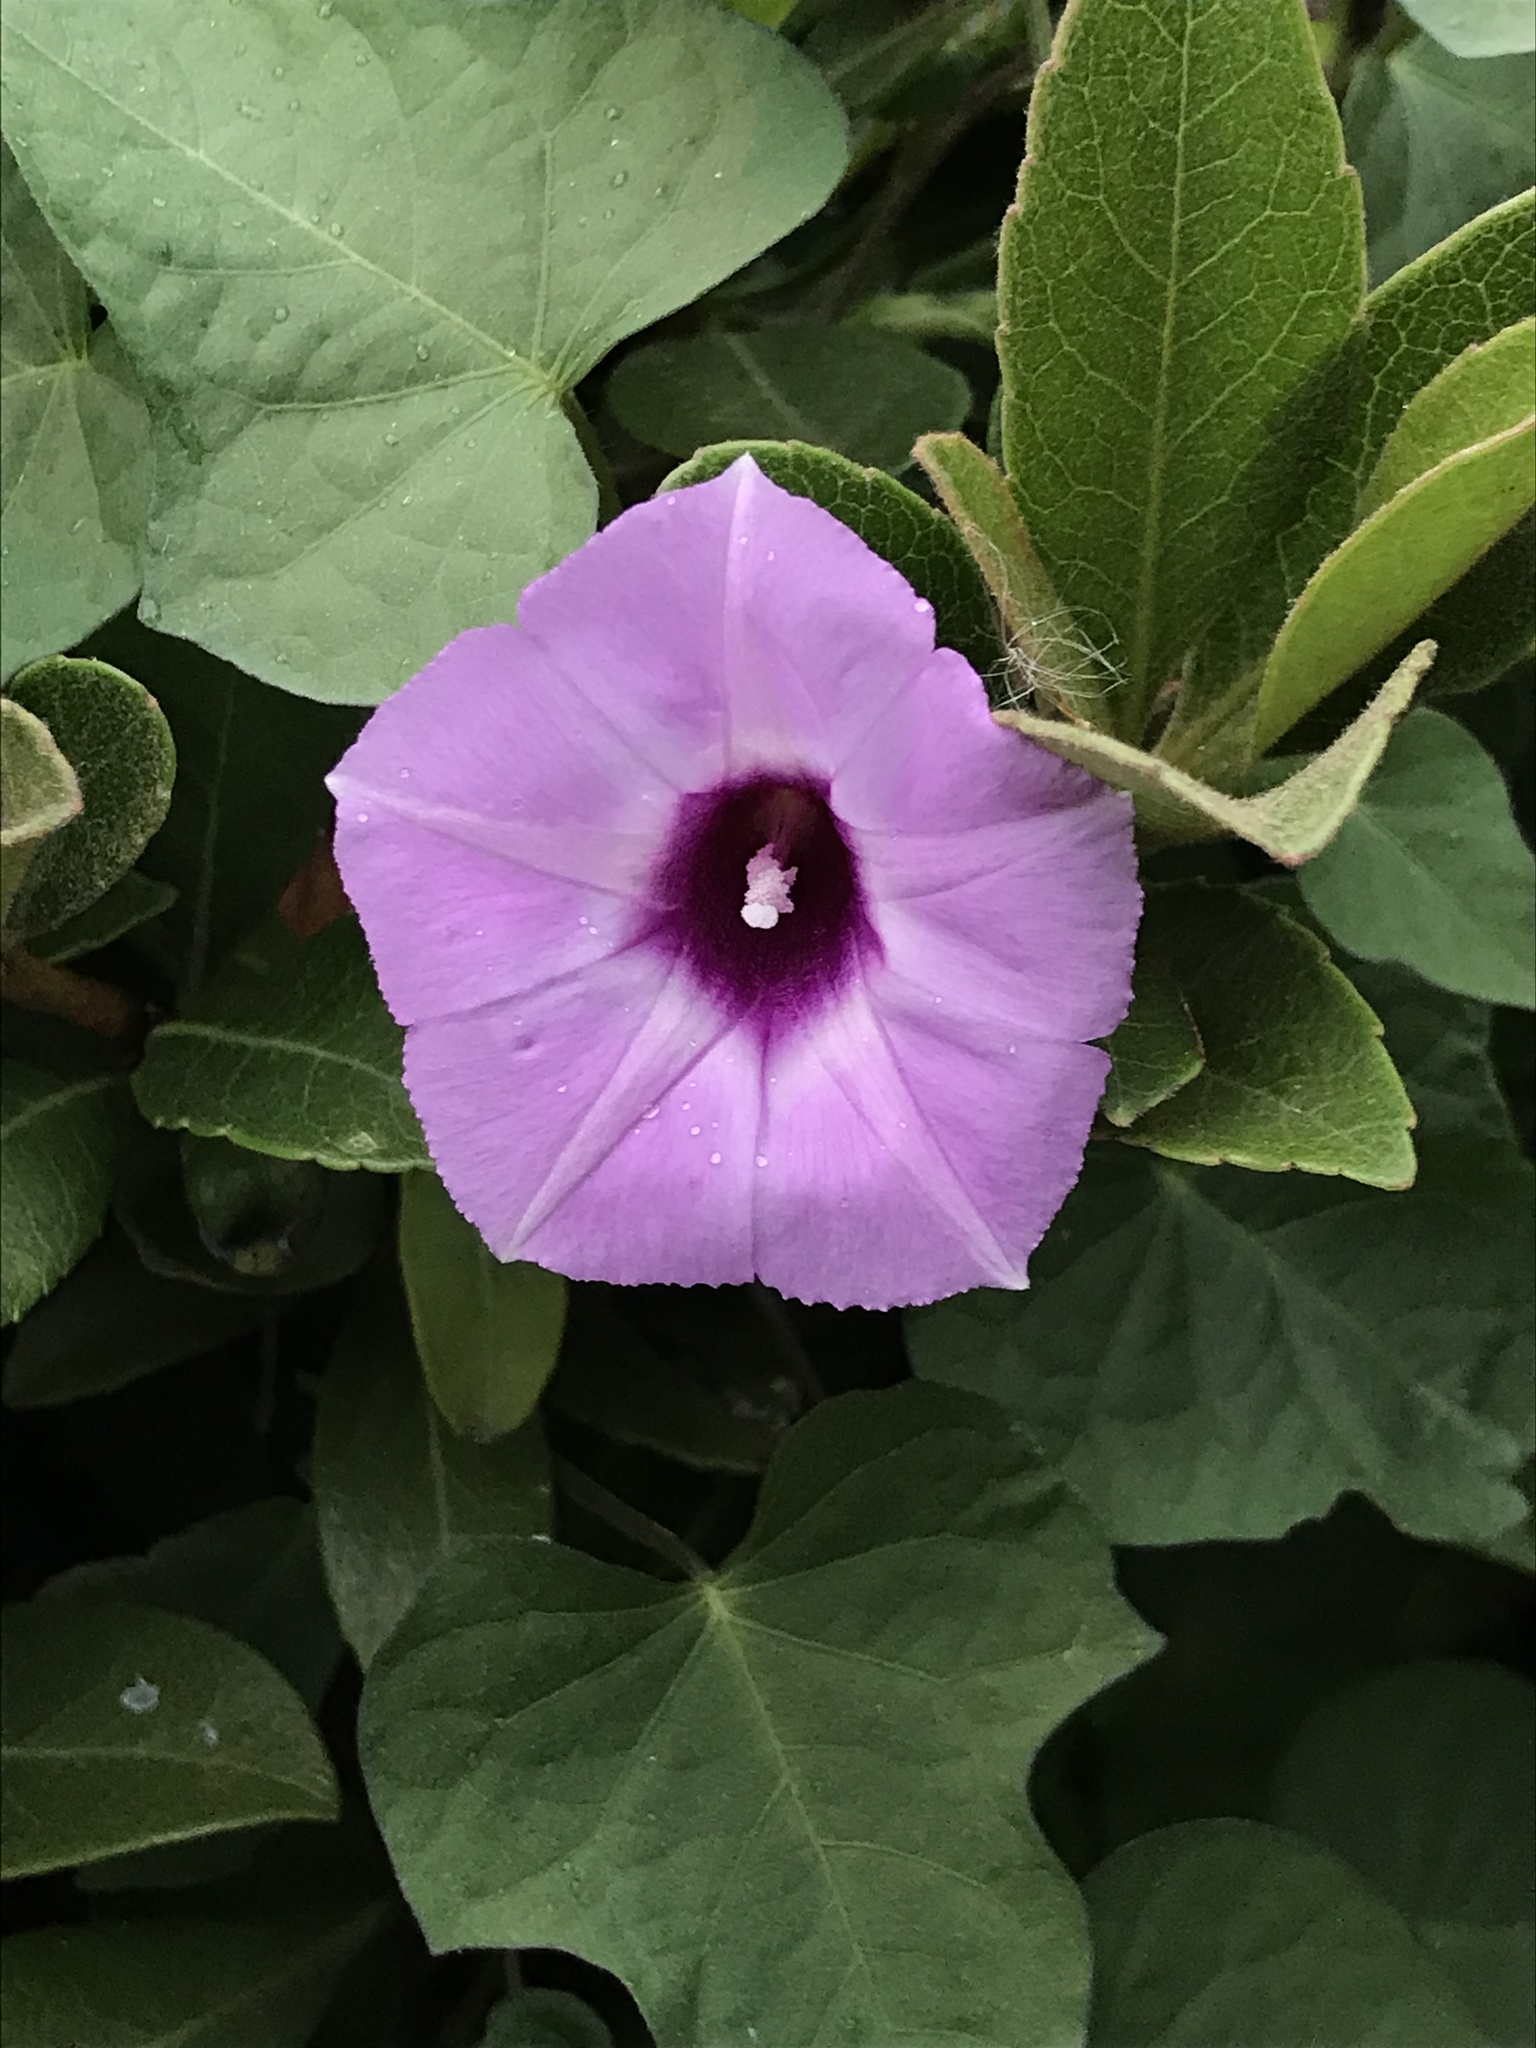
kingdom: Plantae
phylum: Tracheophyta
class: Magnoliopsida
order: Solanales
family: Convolvulaceae
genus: Ipomoea
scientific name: Ipomoea cordatotriloba
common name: Cotton morning glory
